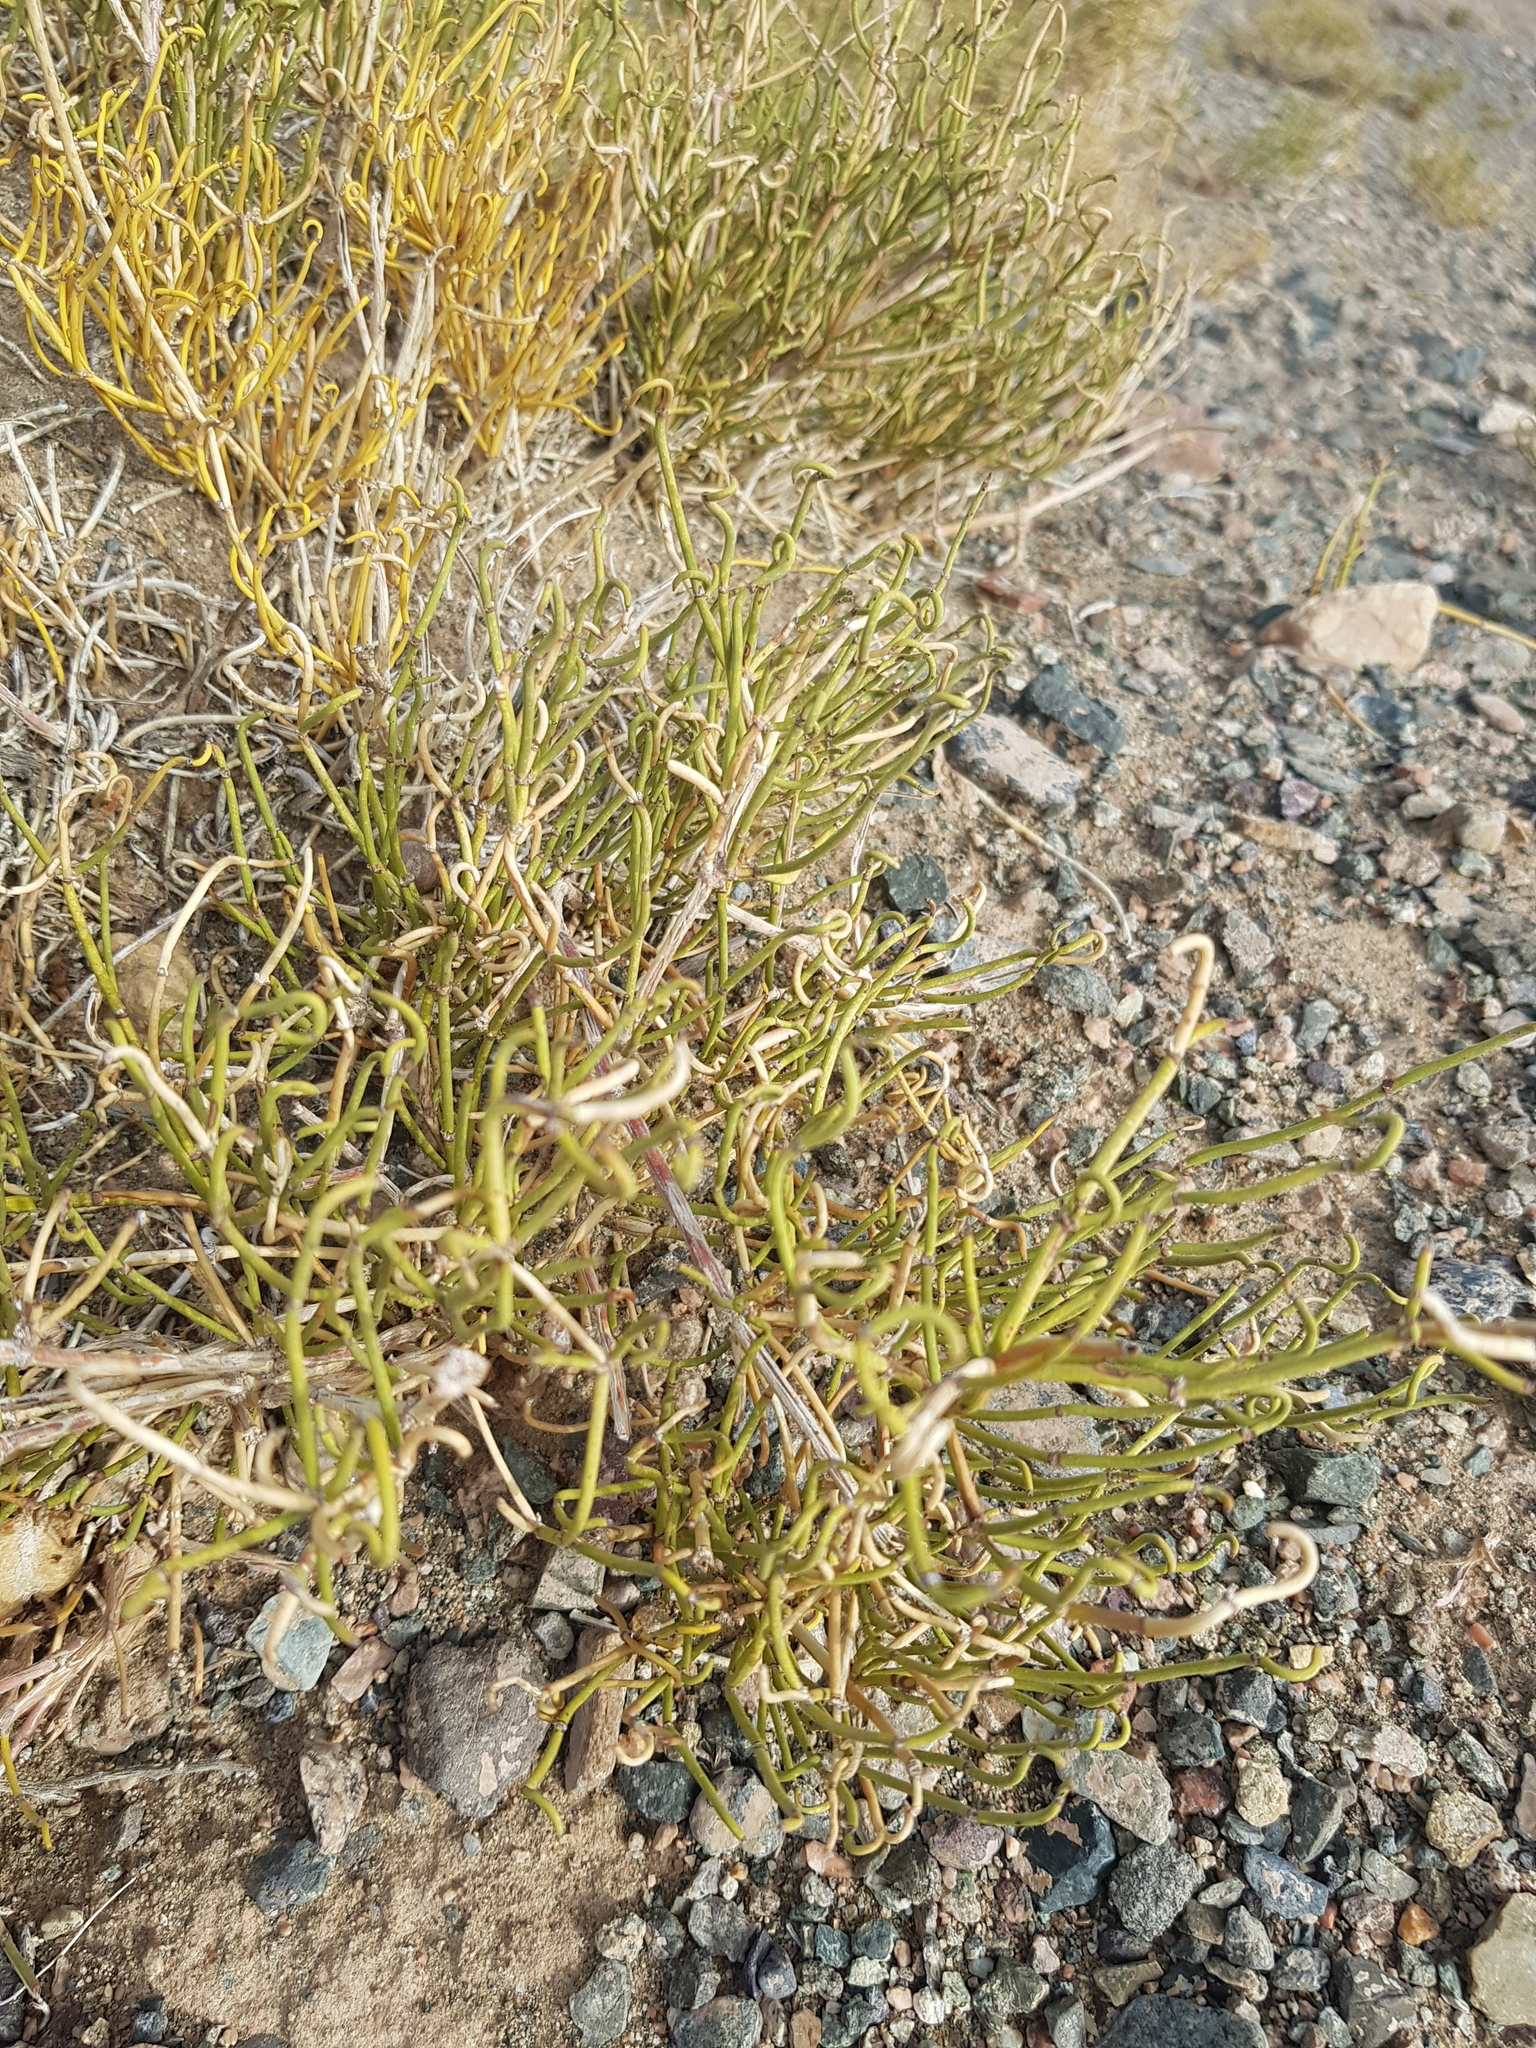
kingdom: Plantae
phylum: Tracheophyta
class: Gnetopsida
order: Ephedrales
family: Ephedraceae
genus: Ephedra
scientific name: Ephedra przewalskii
